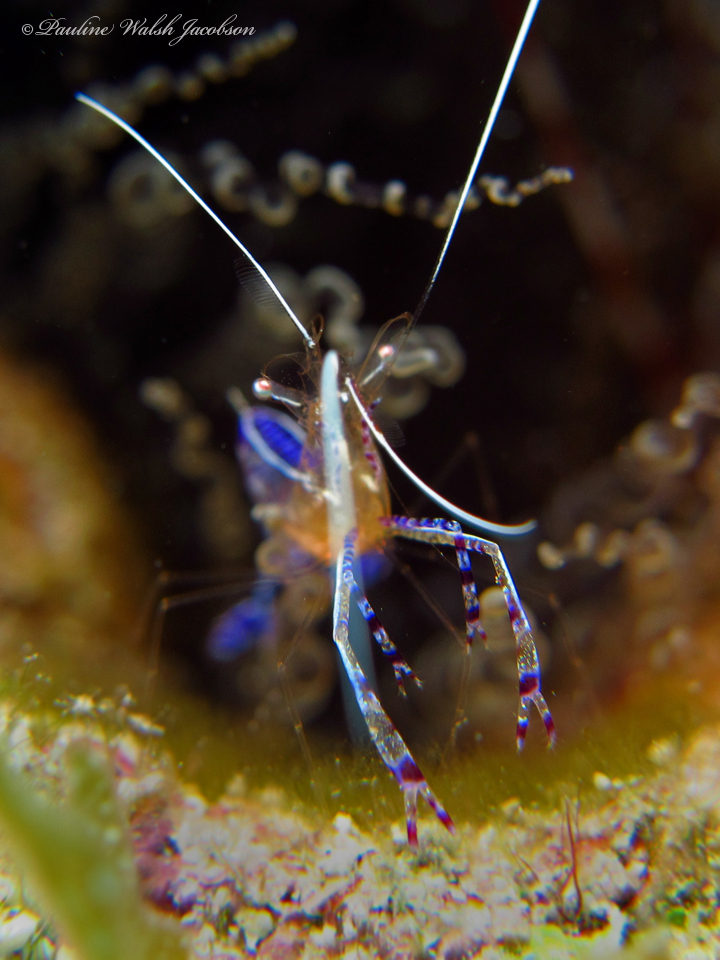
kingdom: Animalia
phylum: Arthropoda
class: Malacostraca
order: Decapoda
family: Palaemonidae
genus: Ancylomenes
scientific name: Ancylomenes pedersoni
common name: Pederson's cleaning shrimp
